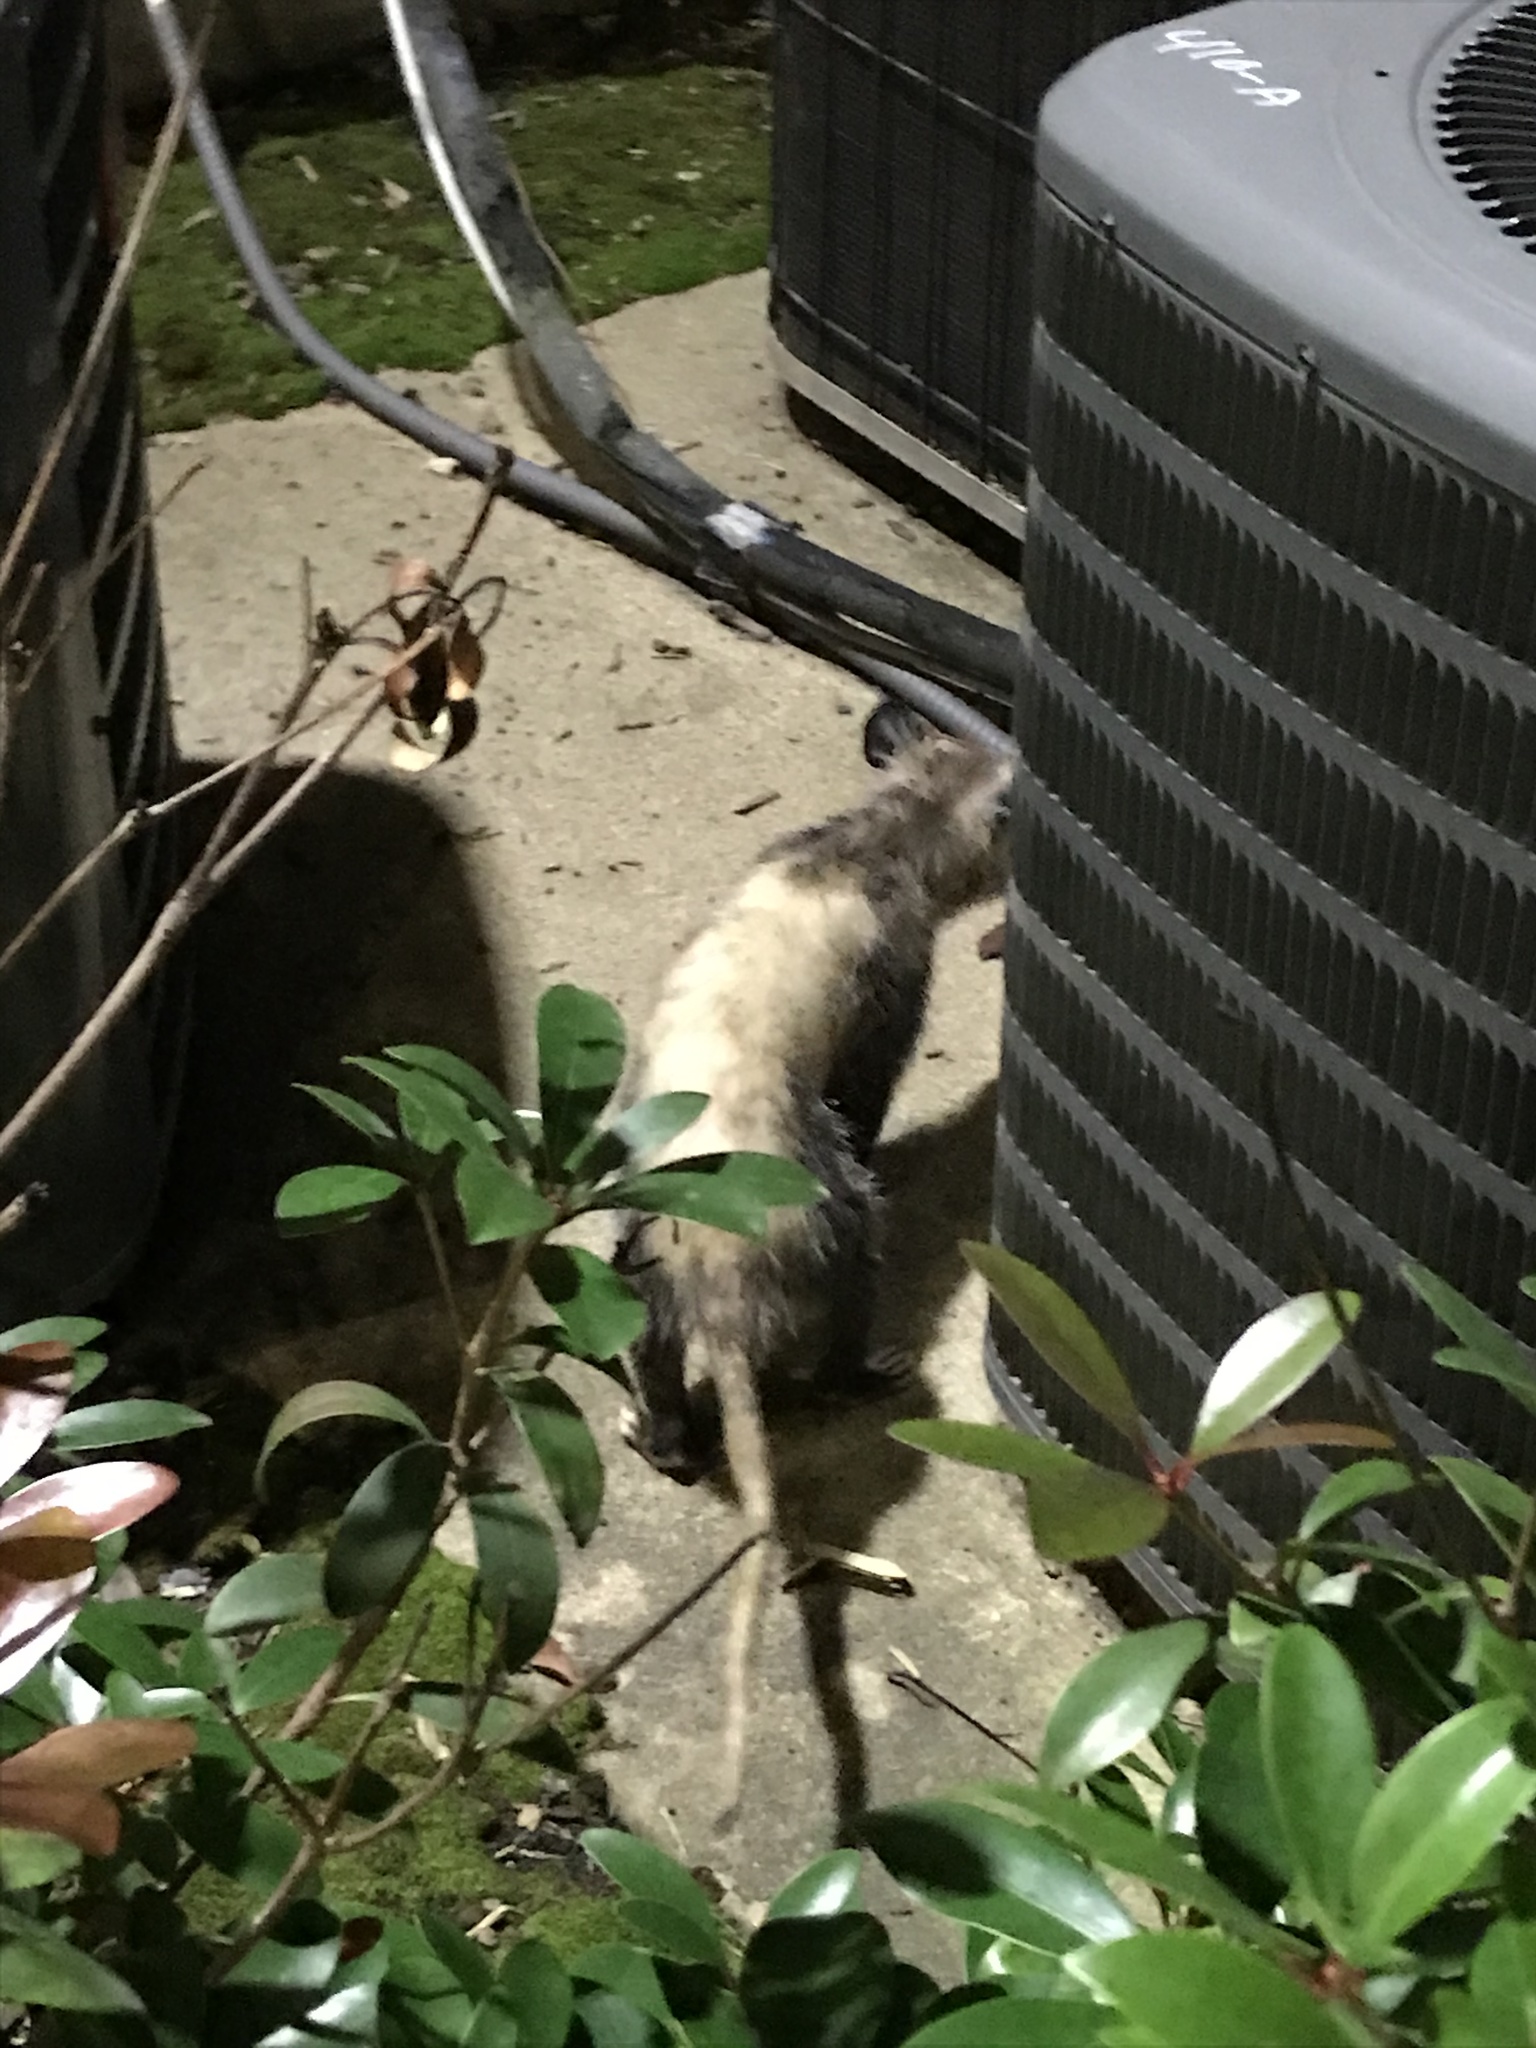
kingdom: Animalia
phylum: Chordata
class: Mammalia
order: Didelphimorphia
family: Didelphidae
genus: Didelphis
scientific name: Didelphis virginiana
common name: Virginia opossum
